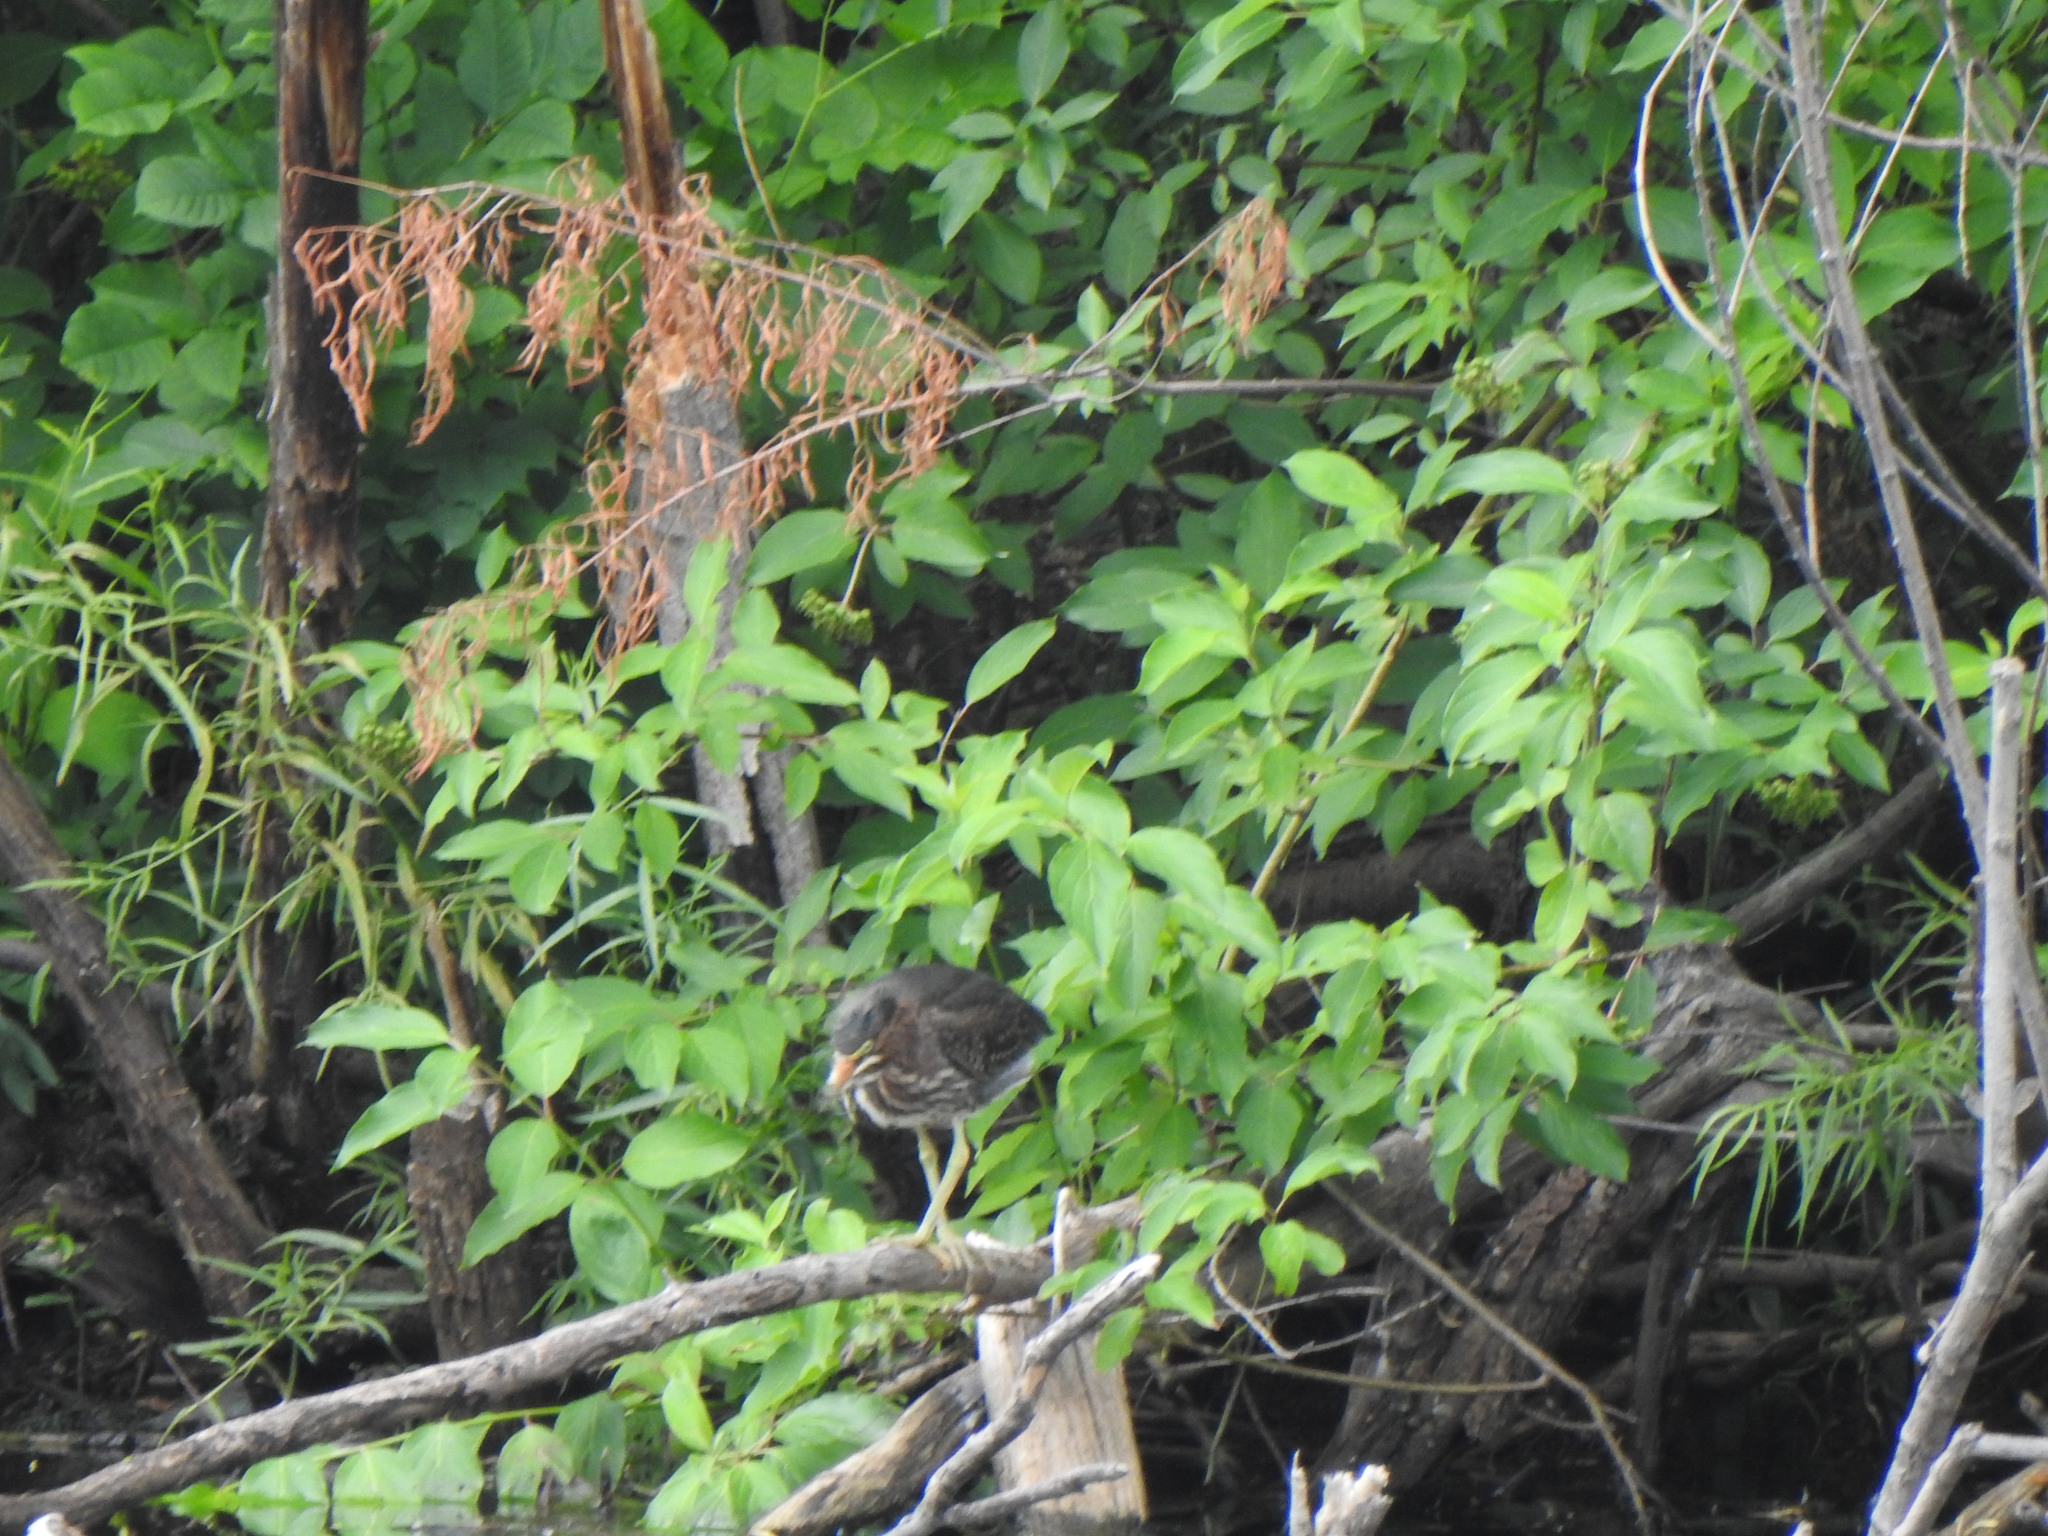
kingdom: Animalia
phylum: Chordata
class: Aves
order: Pelecaniformes
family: Ardeidae
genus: Butorides
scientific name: Butorides virescens
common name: Green heron
